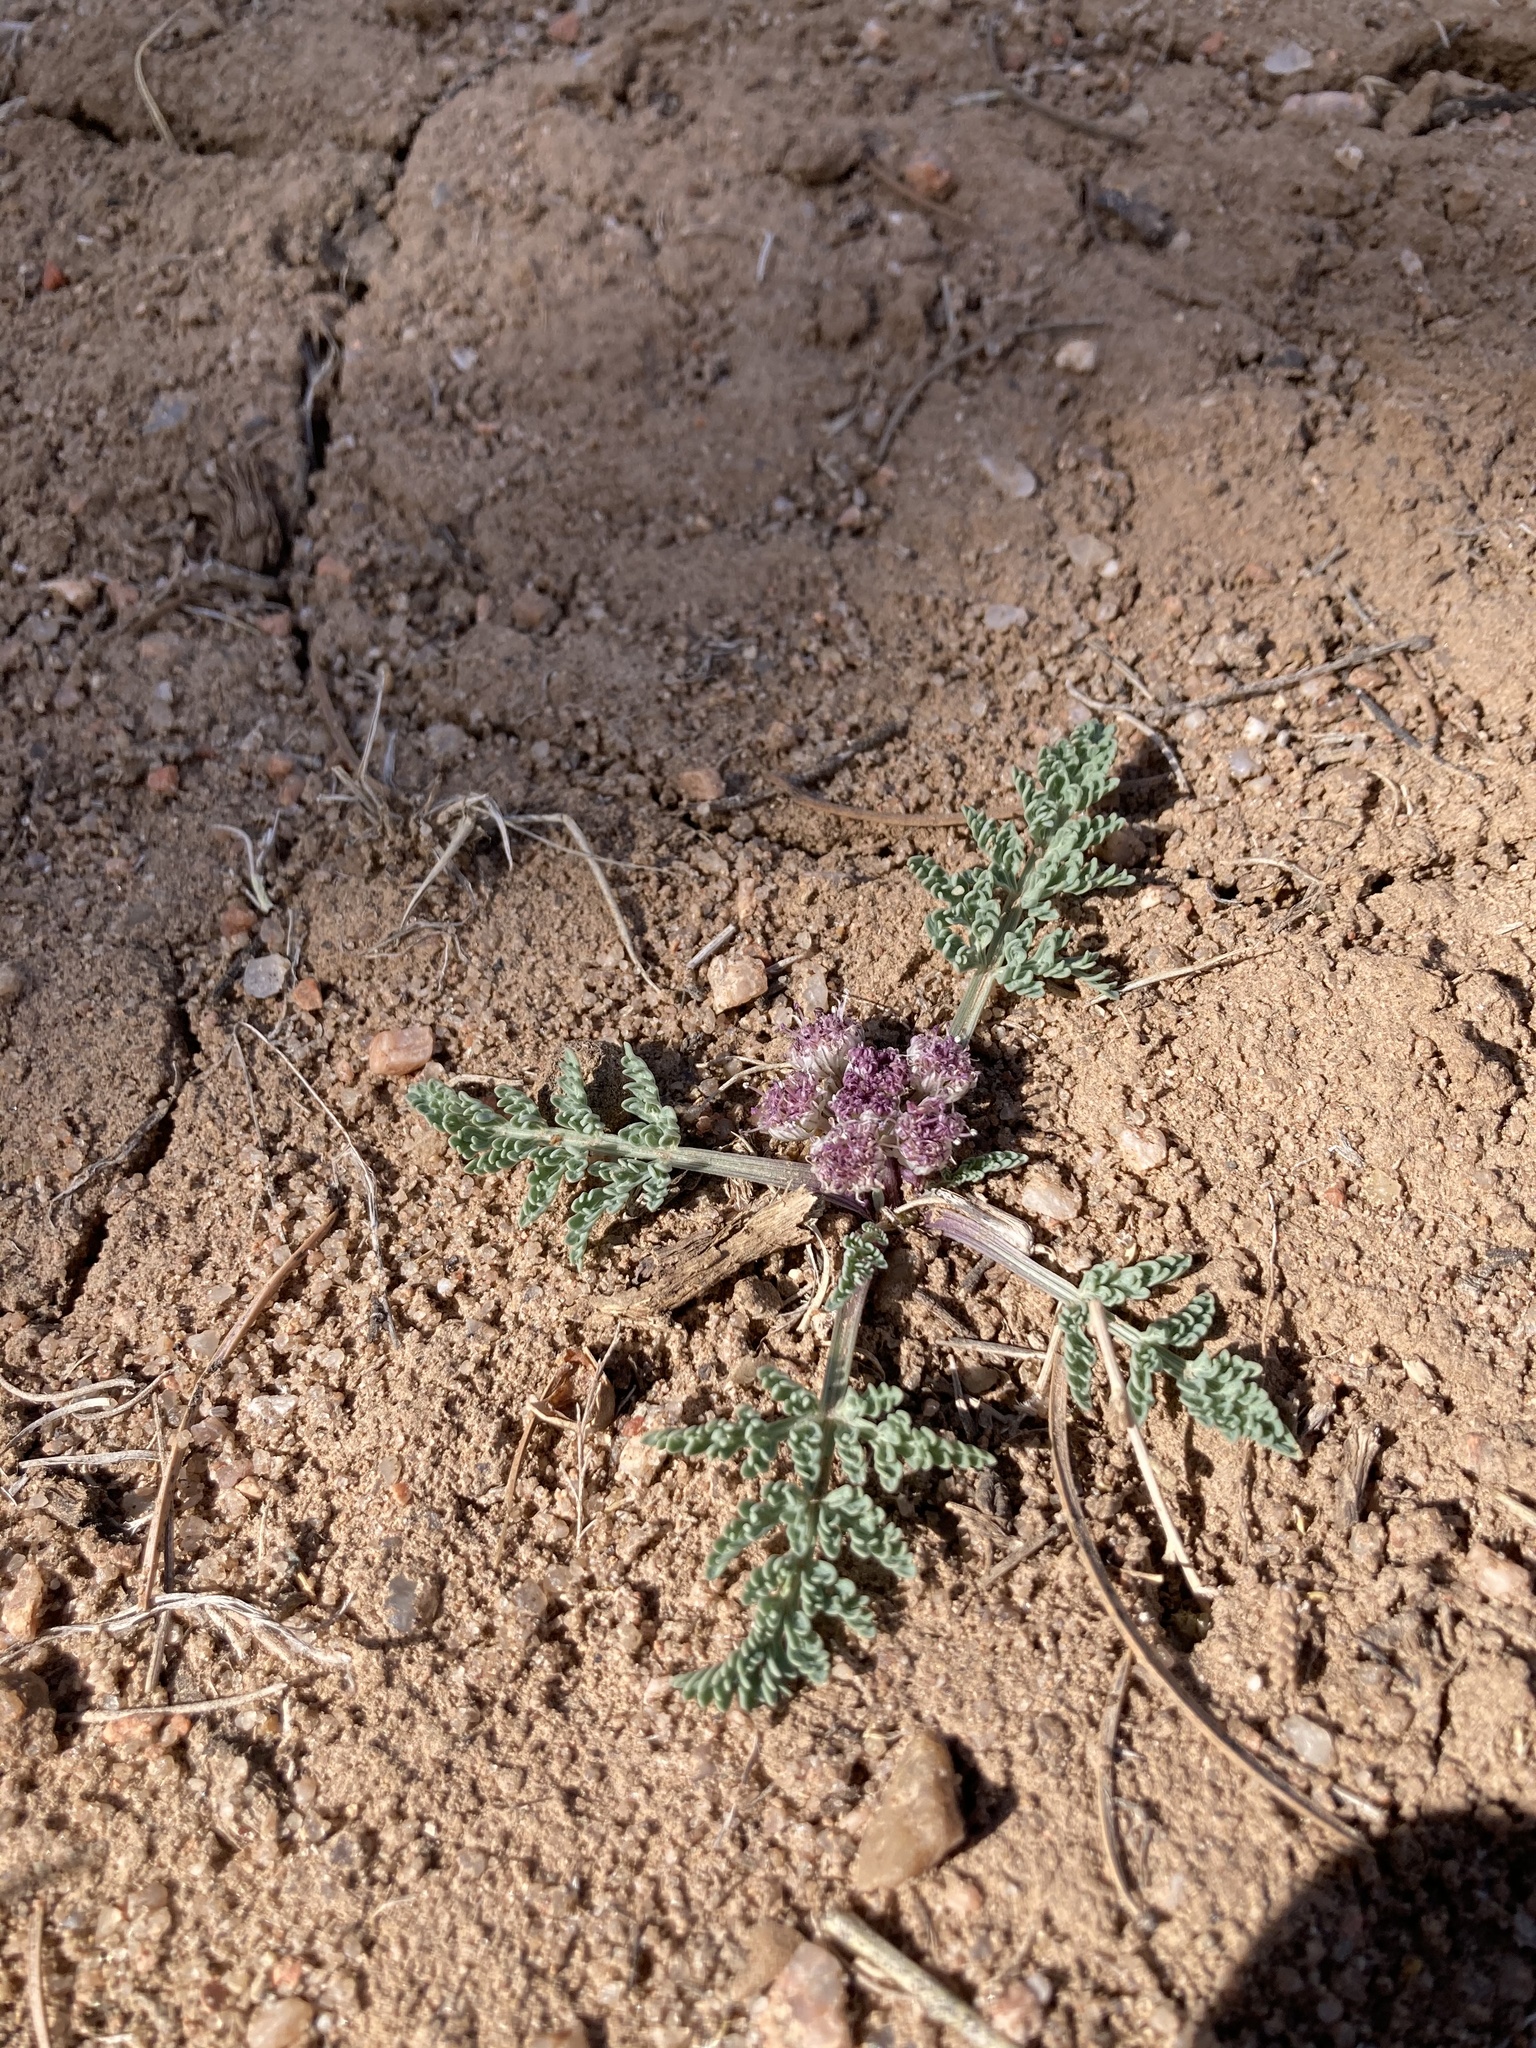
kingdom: Plantae
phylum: Tracheophyta
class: Magnoliopsida
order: Apiales
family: Apiaceae
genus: Vesper
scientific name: Vesper constancei
